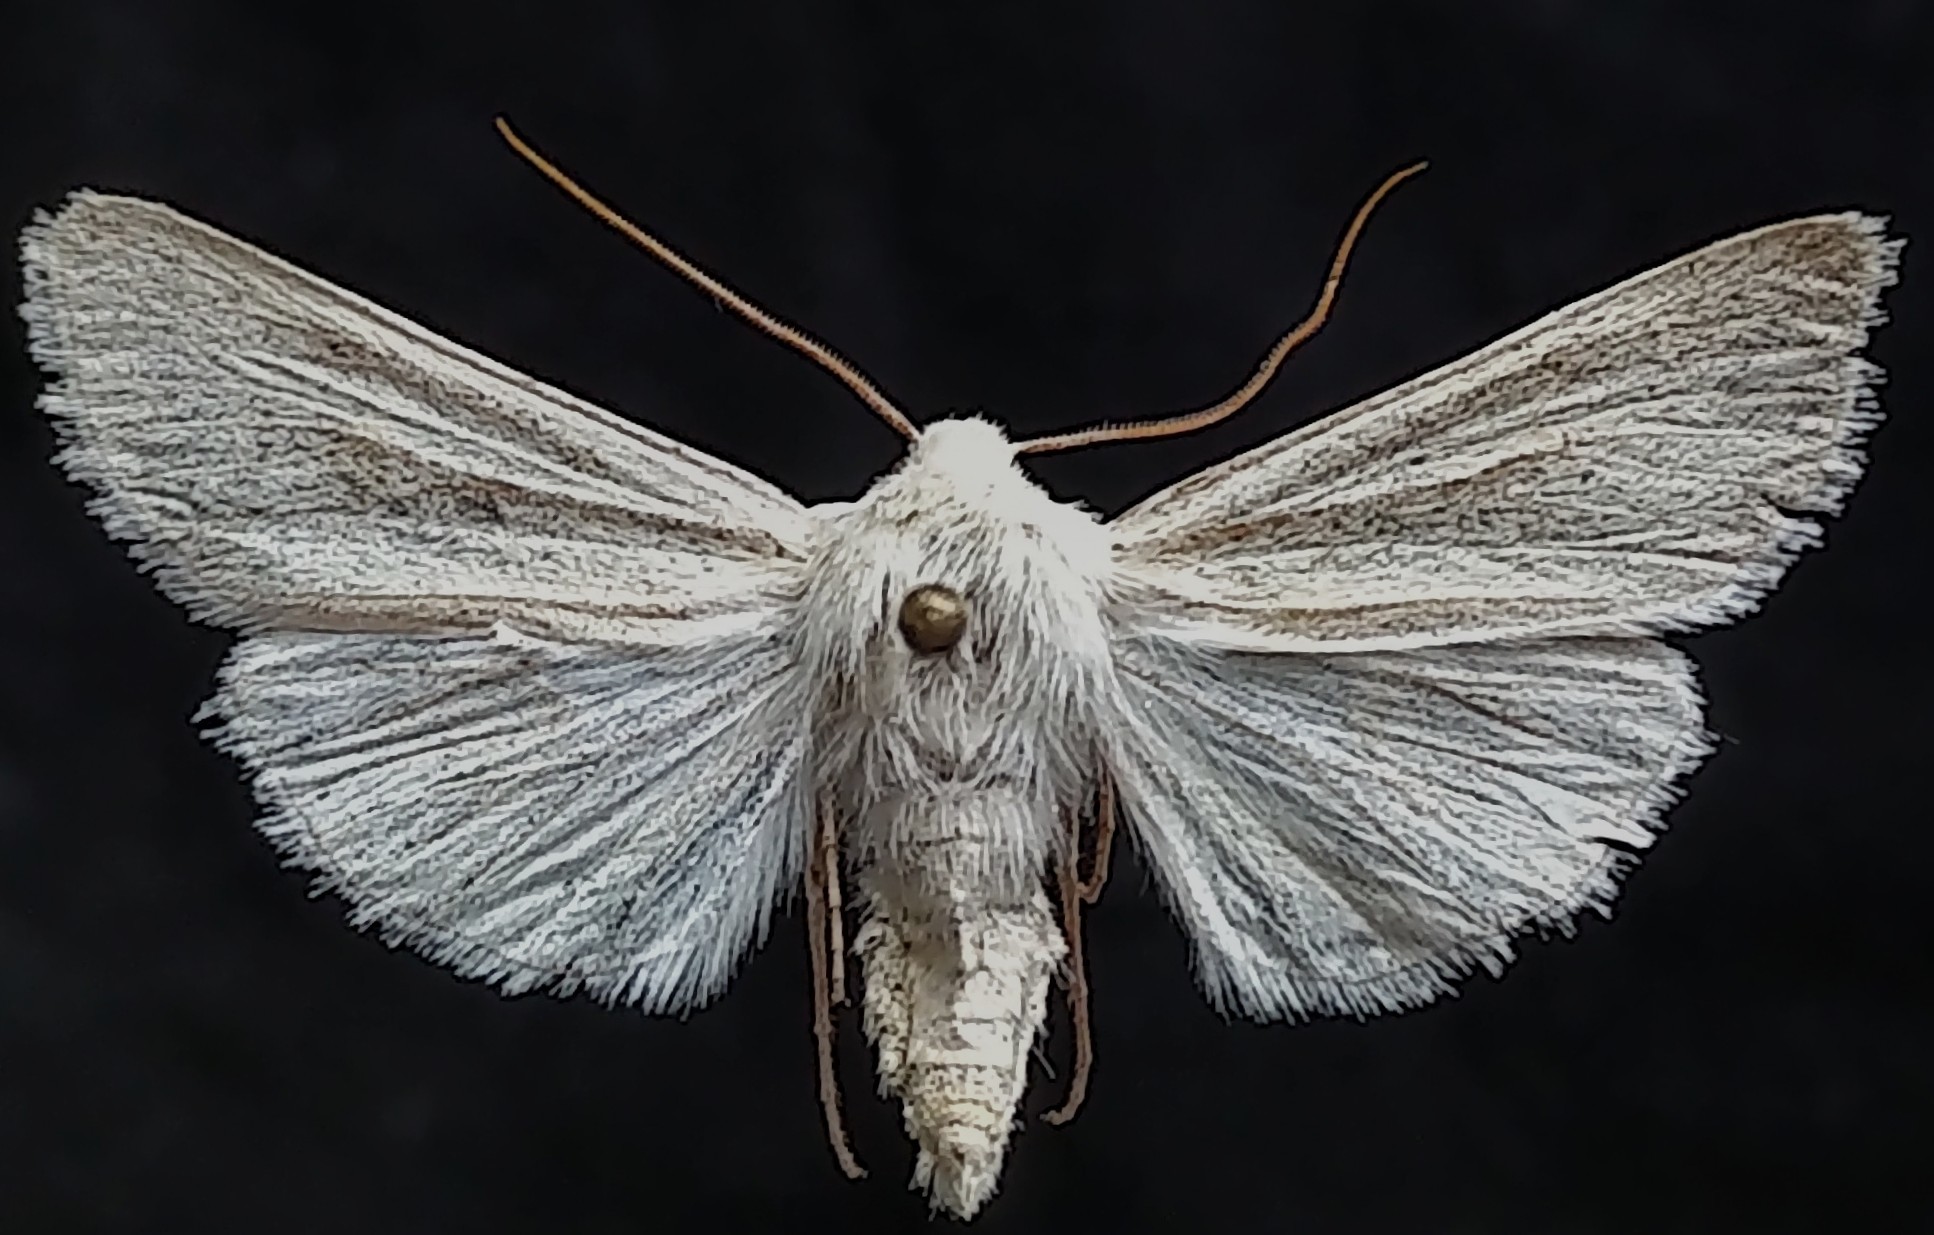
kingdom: Animalia
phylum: Arthropoda
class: Insecta
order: Lepidoptera
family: Noctuidae
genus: Copablepharon
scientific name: Copablepharon viridisparsa
